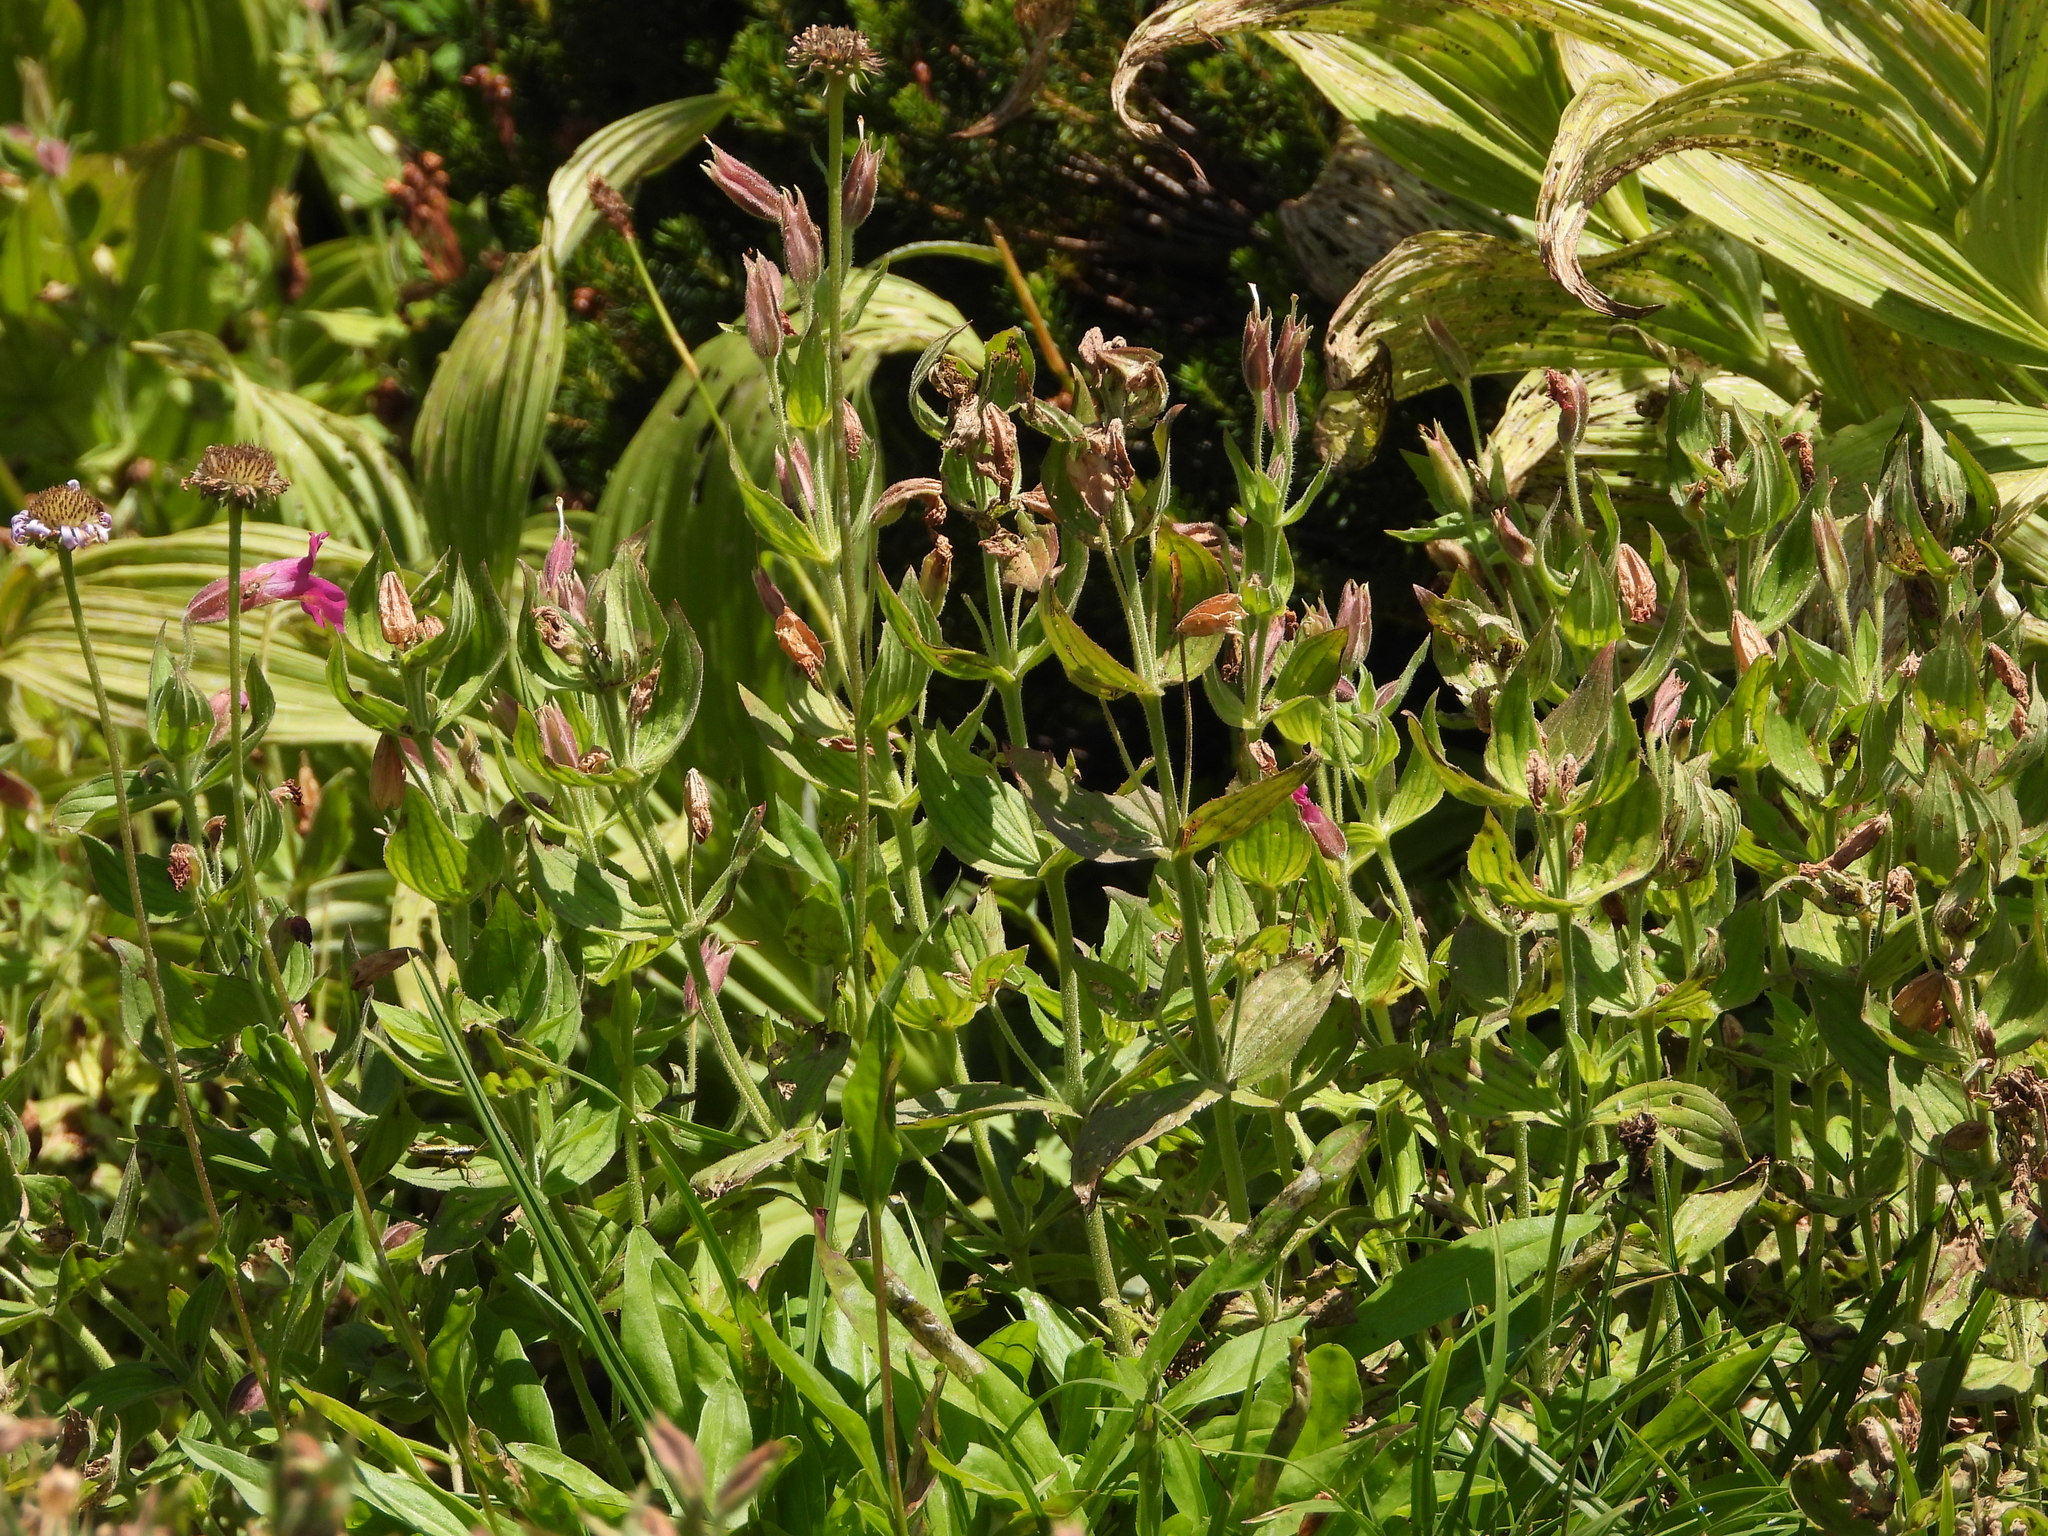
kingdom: Plantae
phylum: Tracheophyta
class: Magnoliopsida
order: Lamiales
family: Phrymaceae
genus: Erythranthe
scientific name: Erythranthe lewisii
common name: Lewis's monkey-flower
